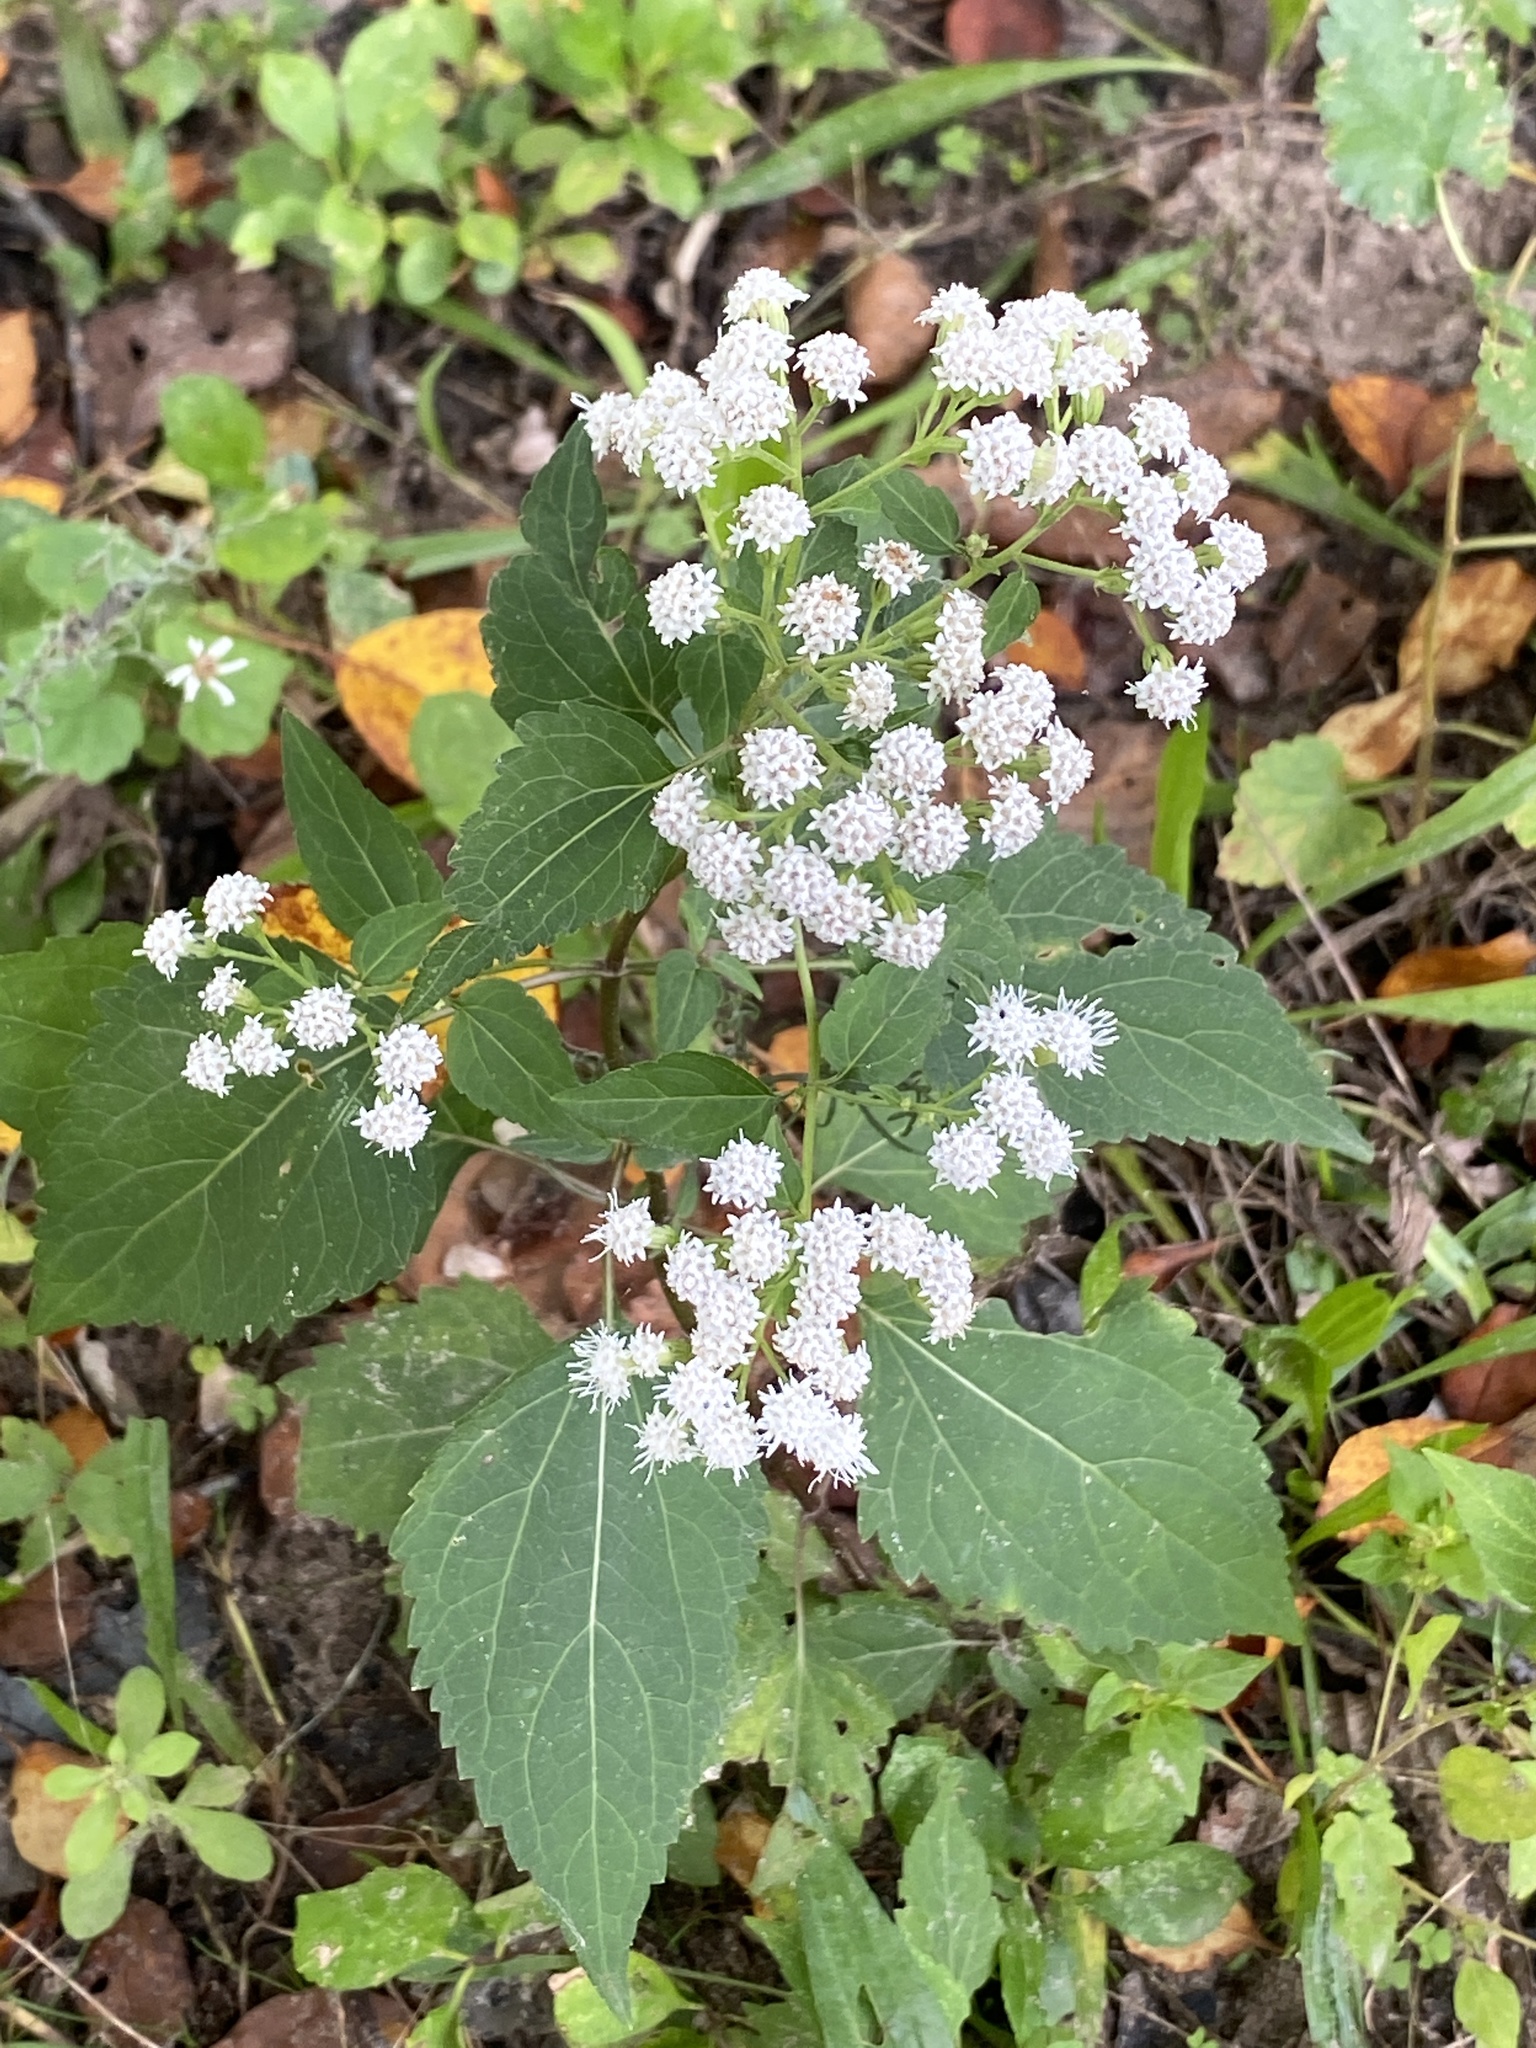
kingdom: Plantae
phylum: Tracheophyta
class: Magnoliopsida
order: Asterales
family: Asteraceae
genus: Ageratina
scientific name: Ageratina altissima
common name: White snakeroot
